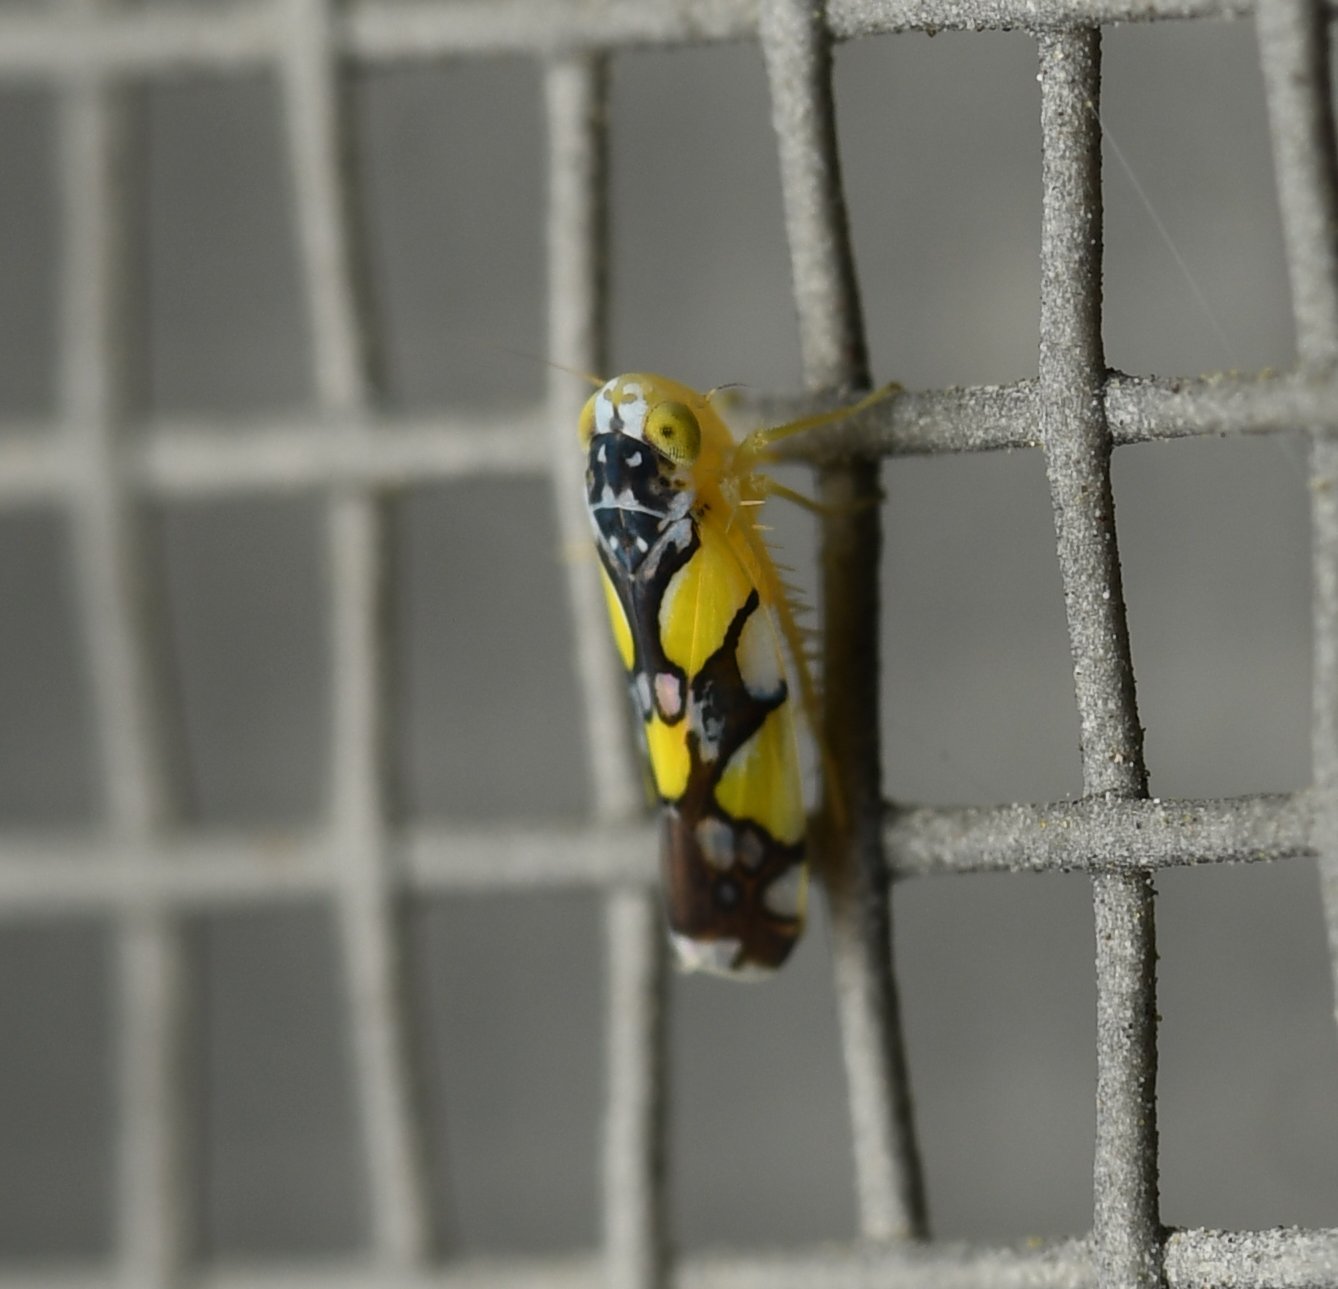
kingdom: Animalia
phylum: Arthropoda
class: Insecta
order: Hemiptera
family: Cicadellidae
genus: Protalebrella
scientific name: Protalebrella brasiliensis
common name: Brasilian leafhopper
